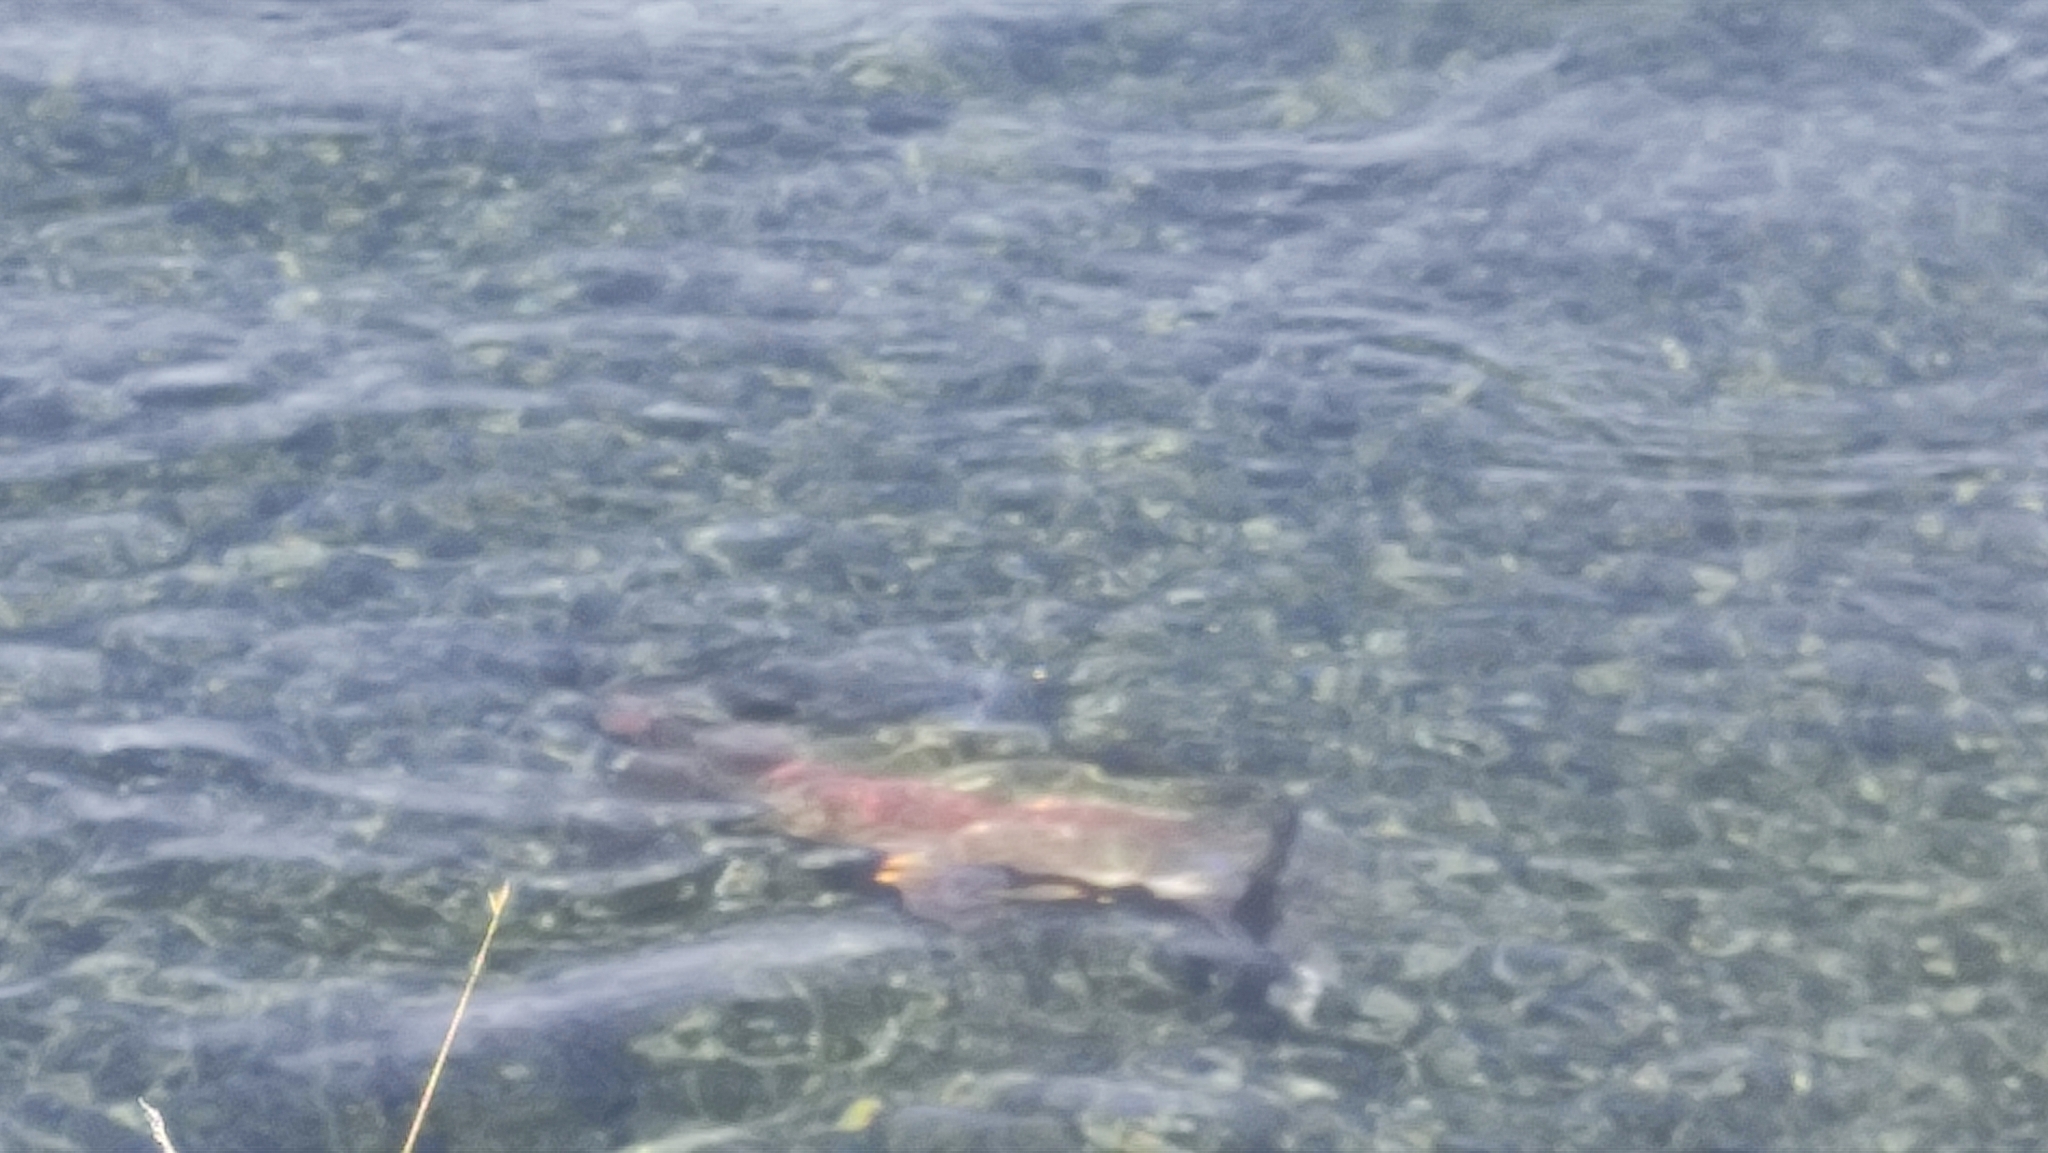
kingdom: Animalia
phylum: Chordata
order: Salmoniformes
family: Salmonidae
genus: Oncorhynchus
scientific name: Oncorhynchus mykiss
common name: Rainbow trout
